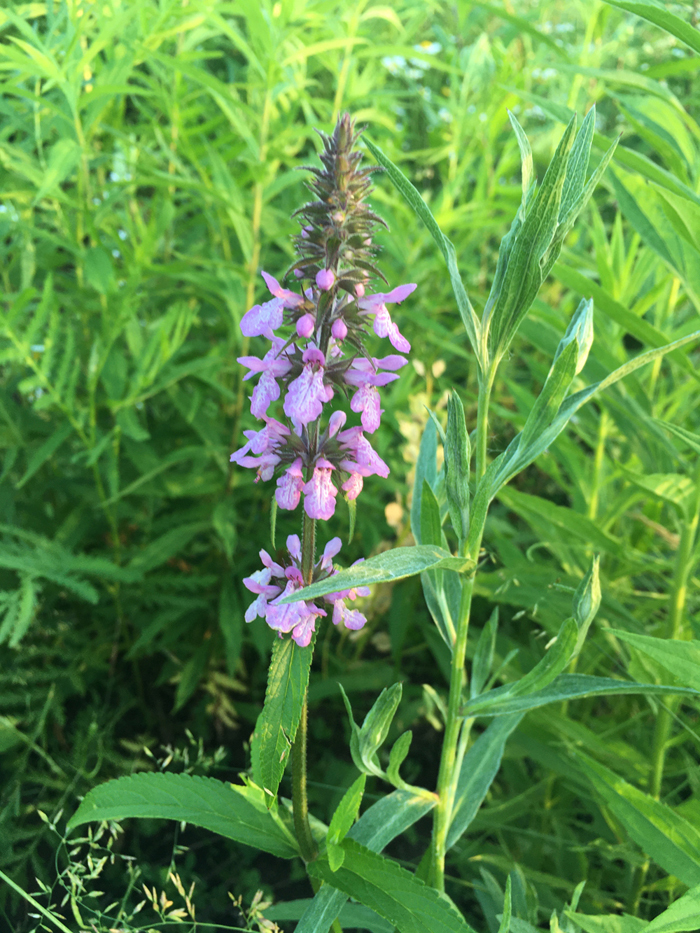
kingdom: Plantae
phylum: Tracheophyta
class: Magnoliopsida
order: Lamiales
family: Lamiaceae
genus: Stachys
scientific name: Stachys palustris
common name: Marsh woundwort
